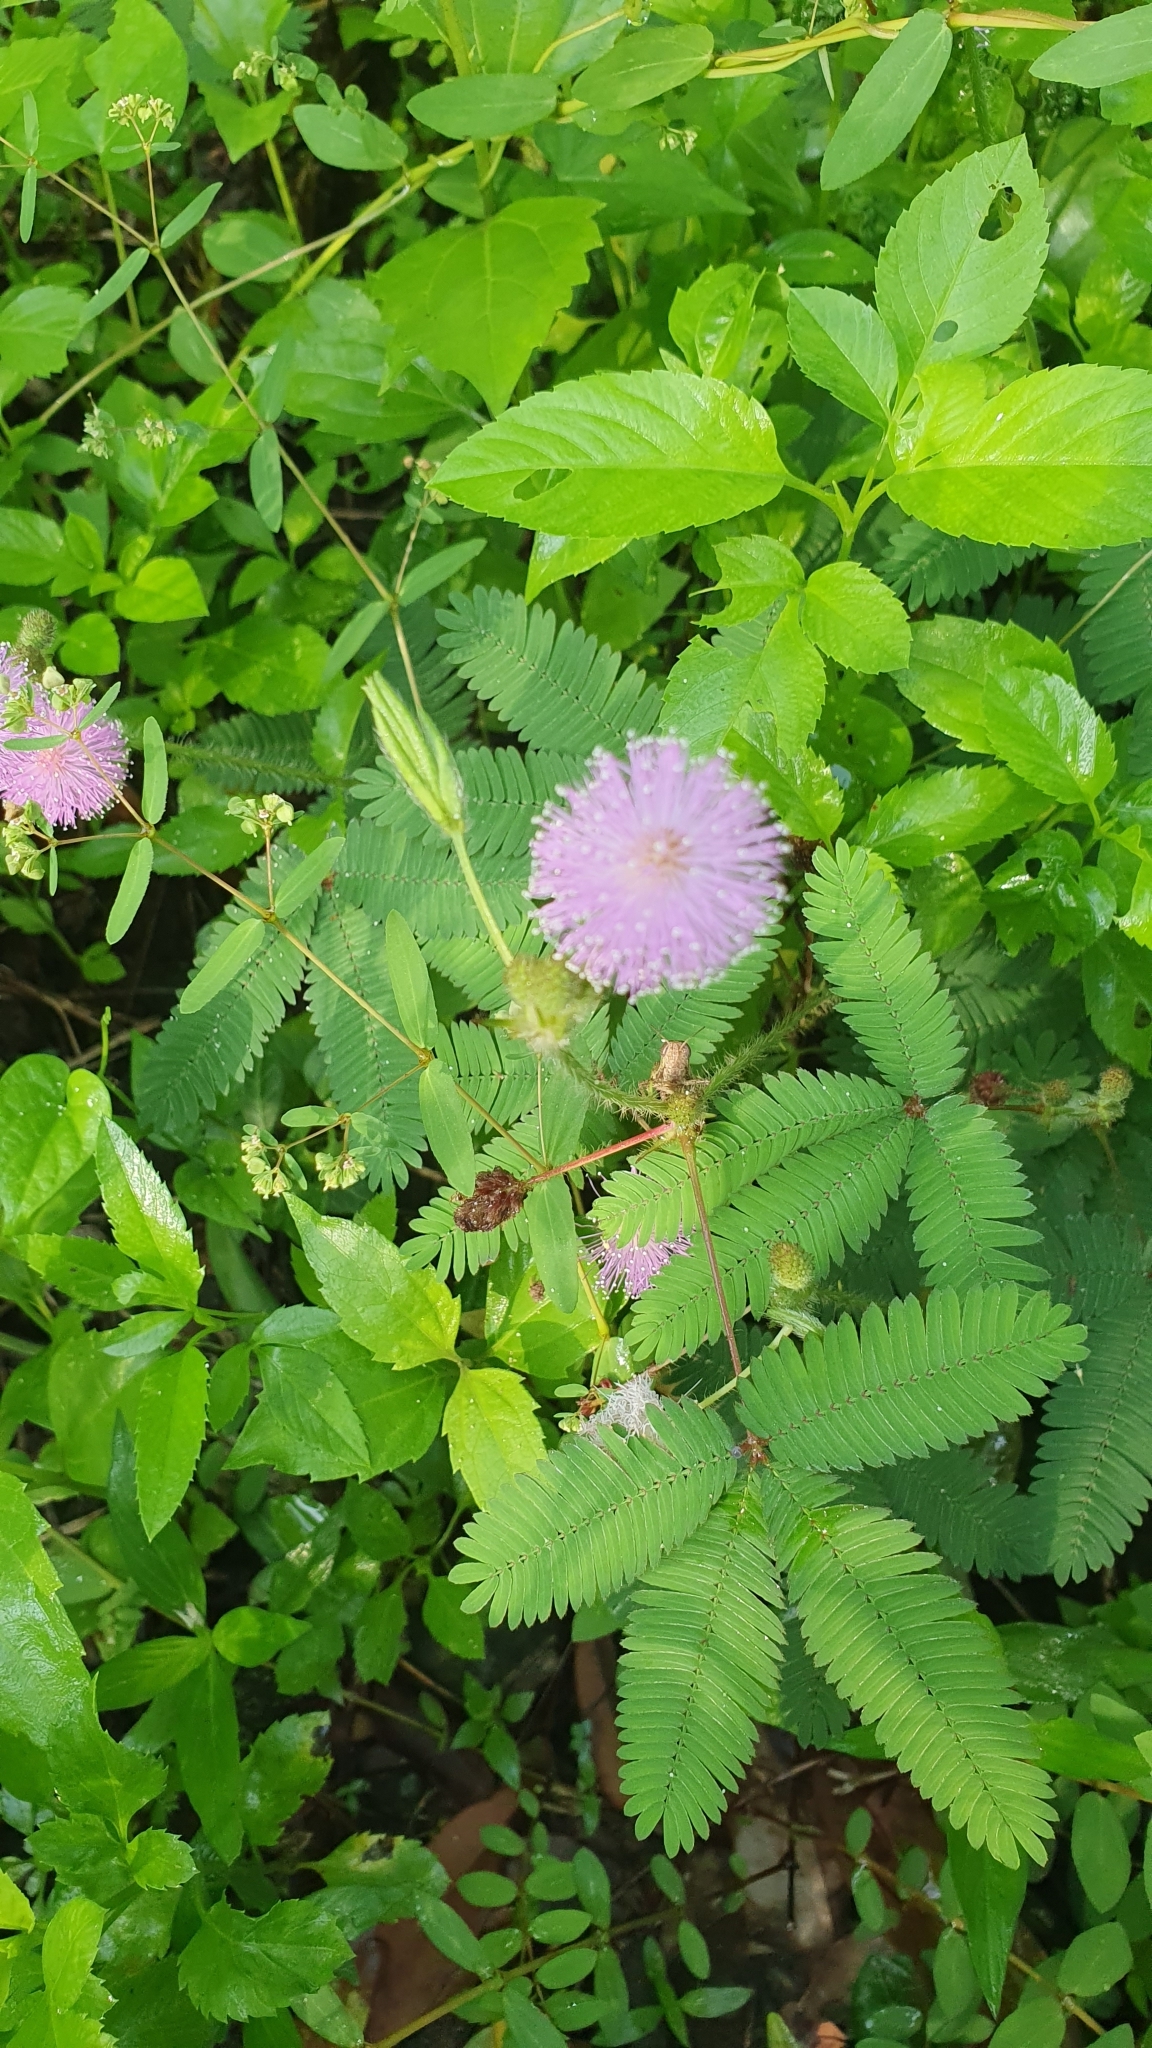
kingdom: Plantae
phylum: Tracheophyta
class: Magnoliopsida
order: Fabales
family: Fabaceae
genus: Mimosa
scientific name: Mimosa pudica
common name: Sensitive plant
